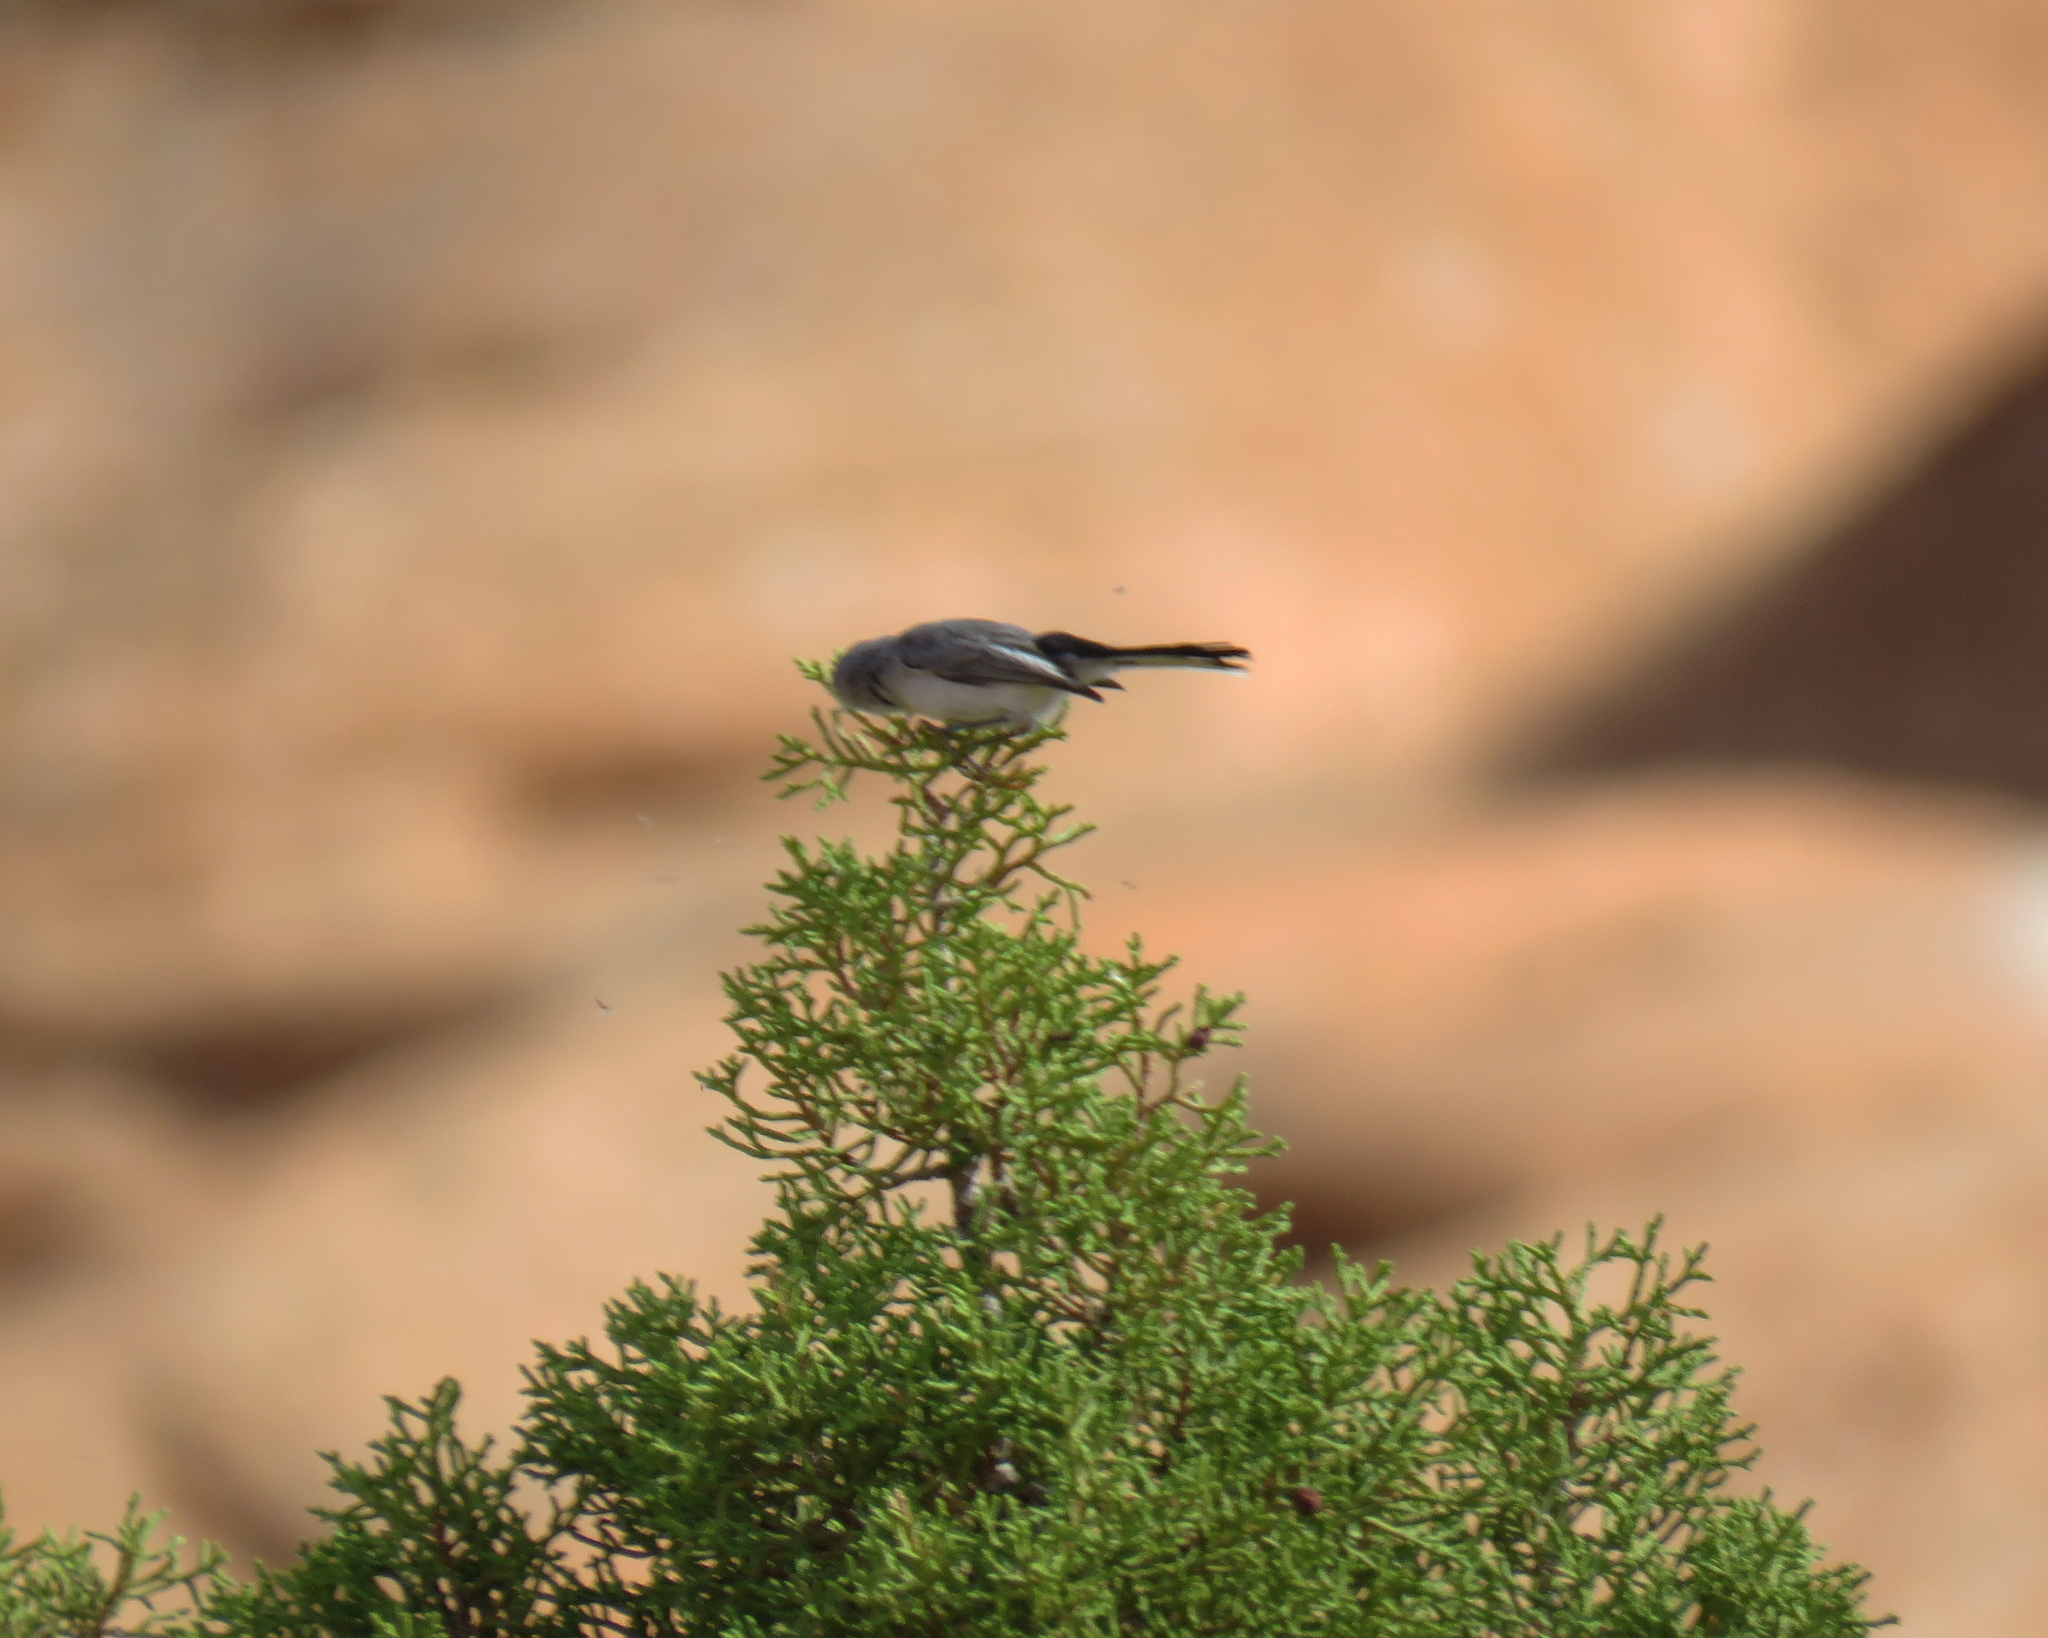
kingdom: Animalia
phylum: Chordata
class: Aves
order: Passeriformes
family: Polioptilidae
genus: Polioptila
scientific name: Polioptila caerulea
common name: Blue-gray gnatcatcher
